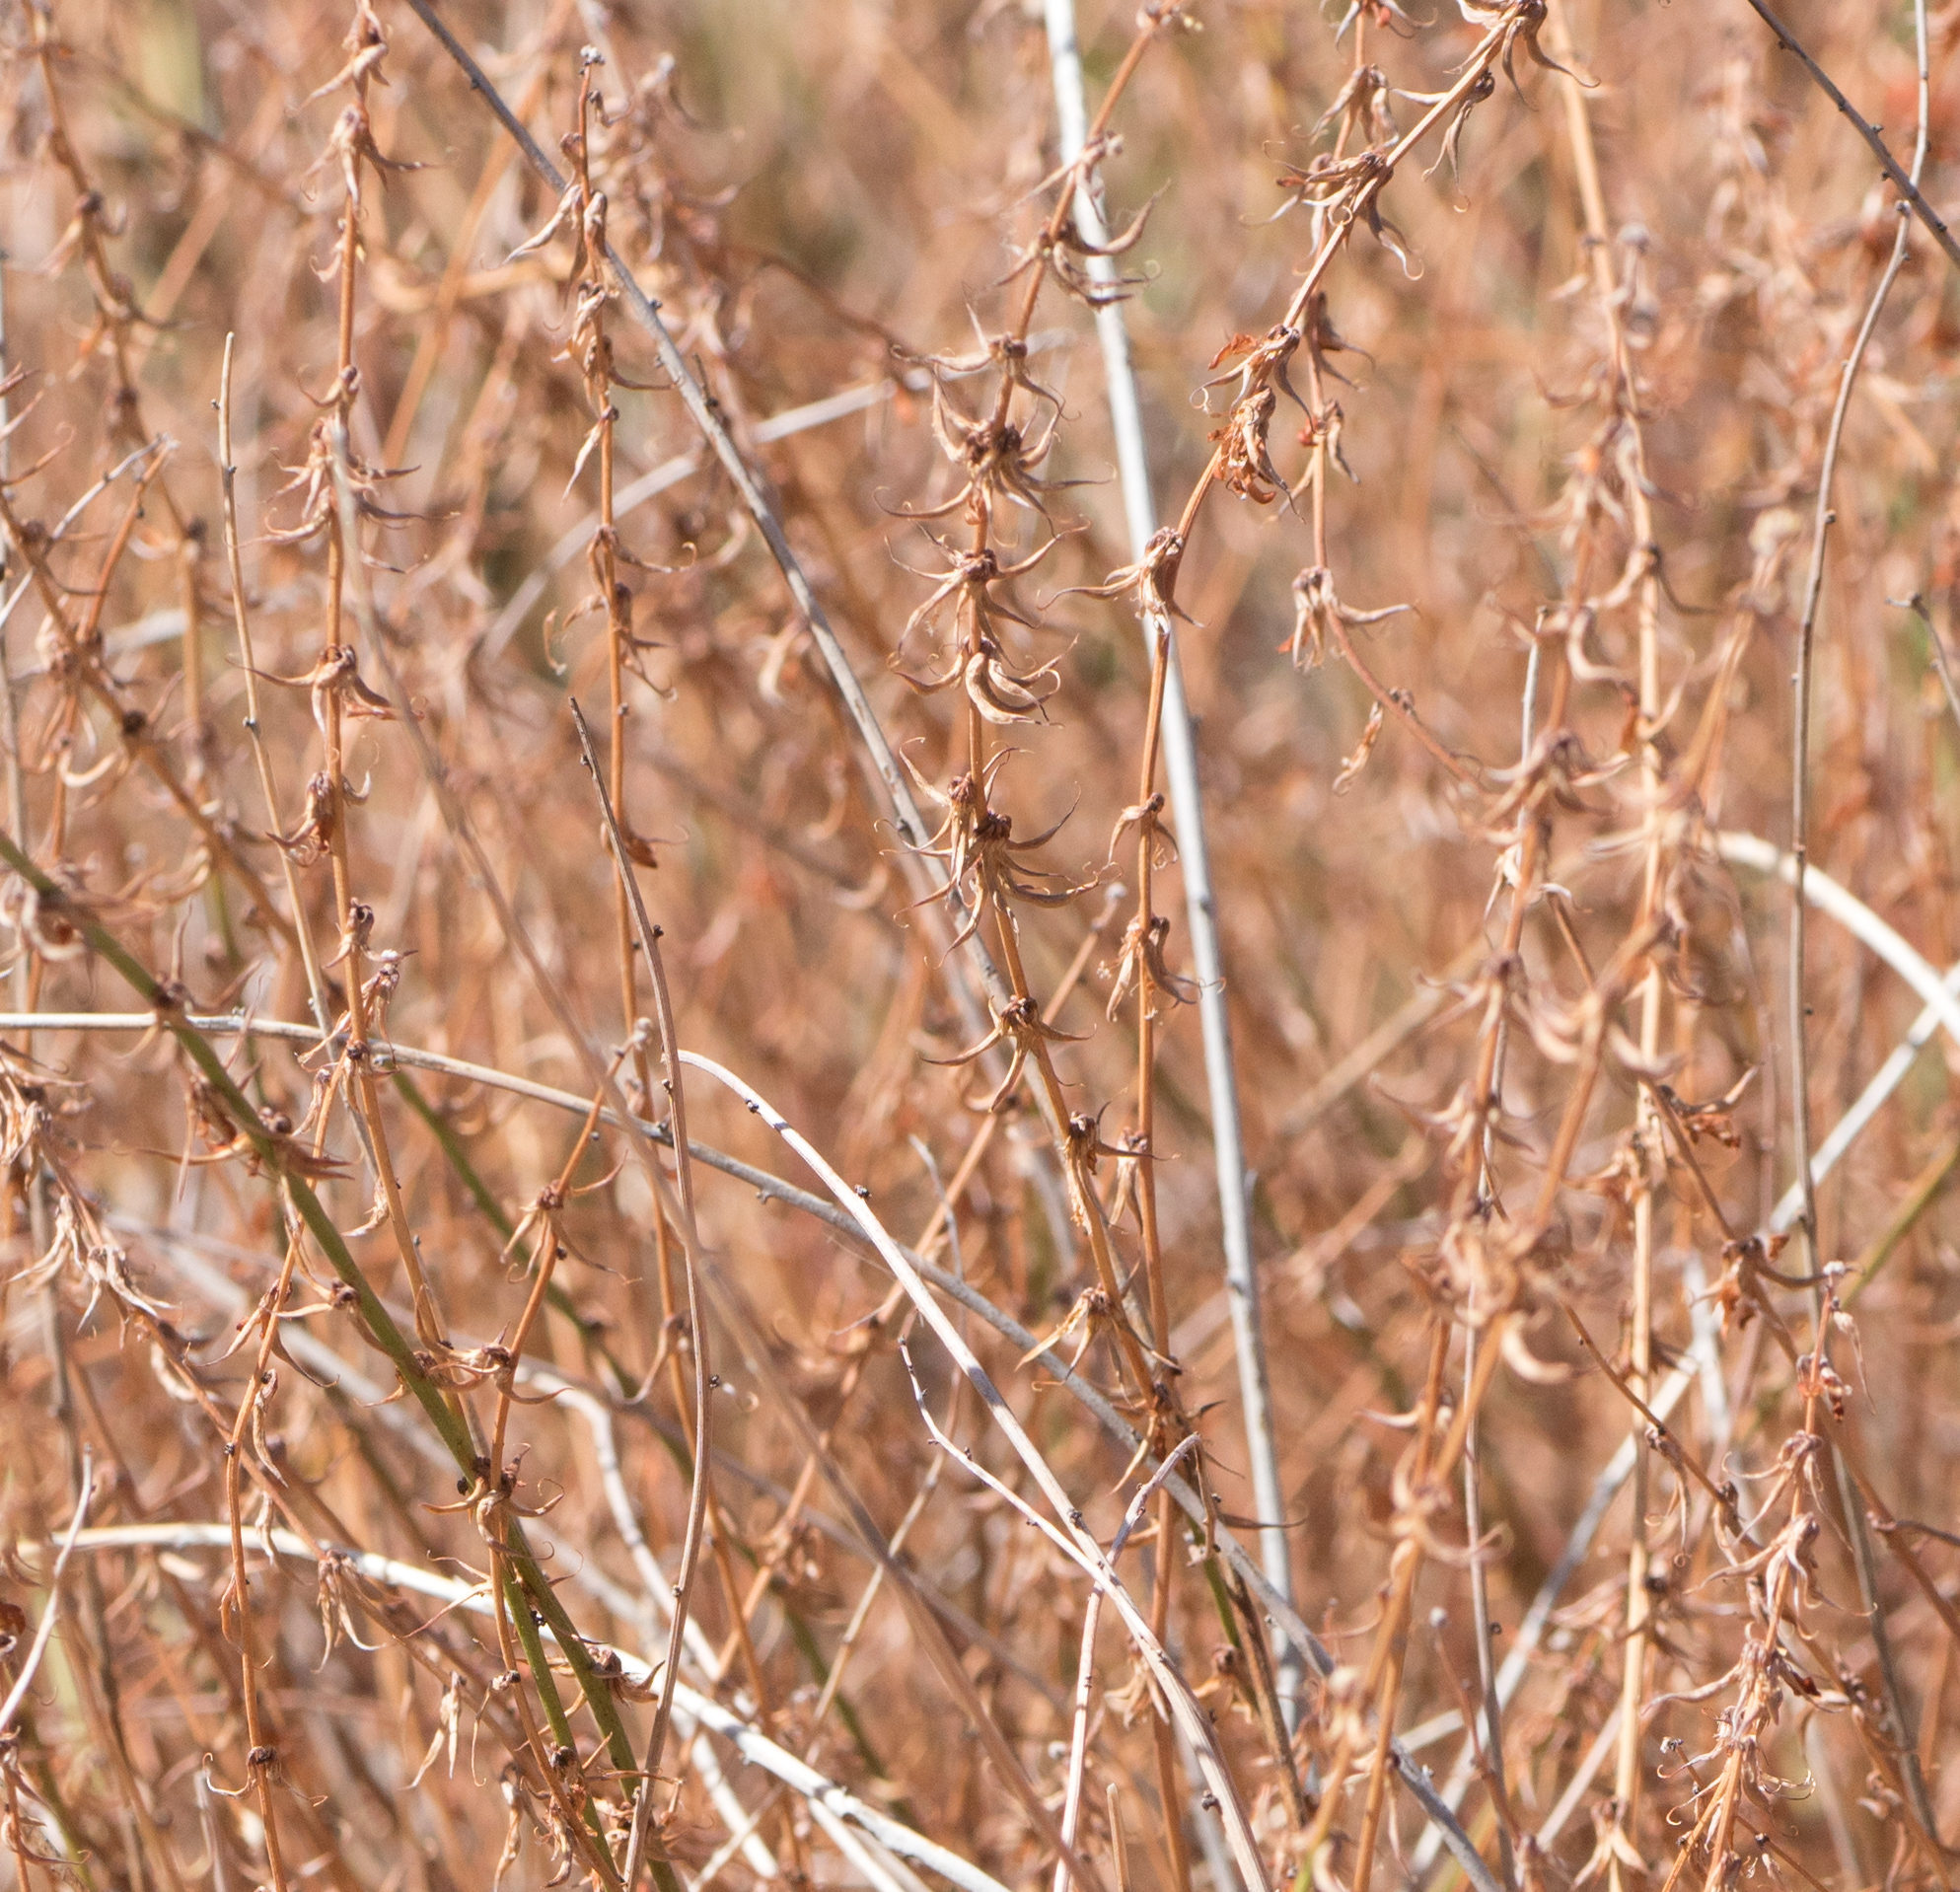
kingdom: Plantae
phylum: Tracheophyta
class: Magnoliopsida
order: Fabales
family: Fabaceae
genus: Acmispon
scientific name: Acmispon glaber
